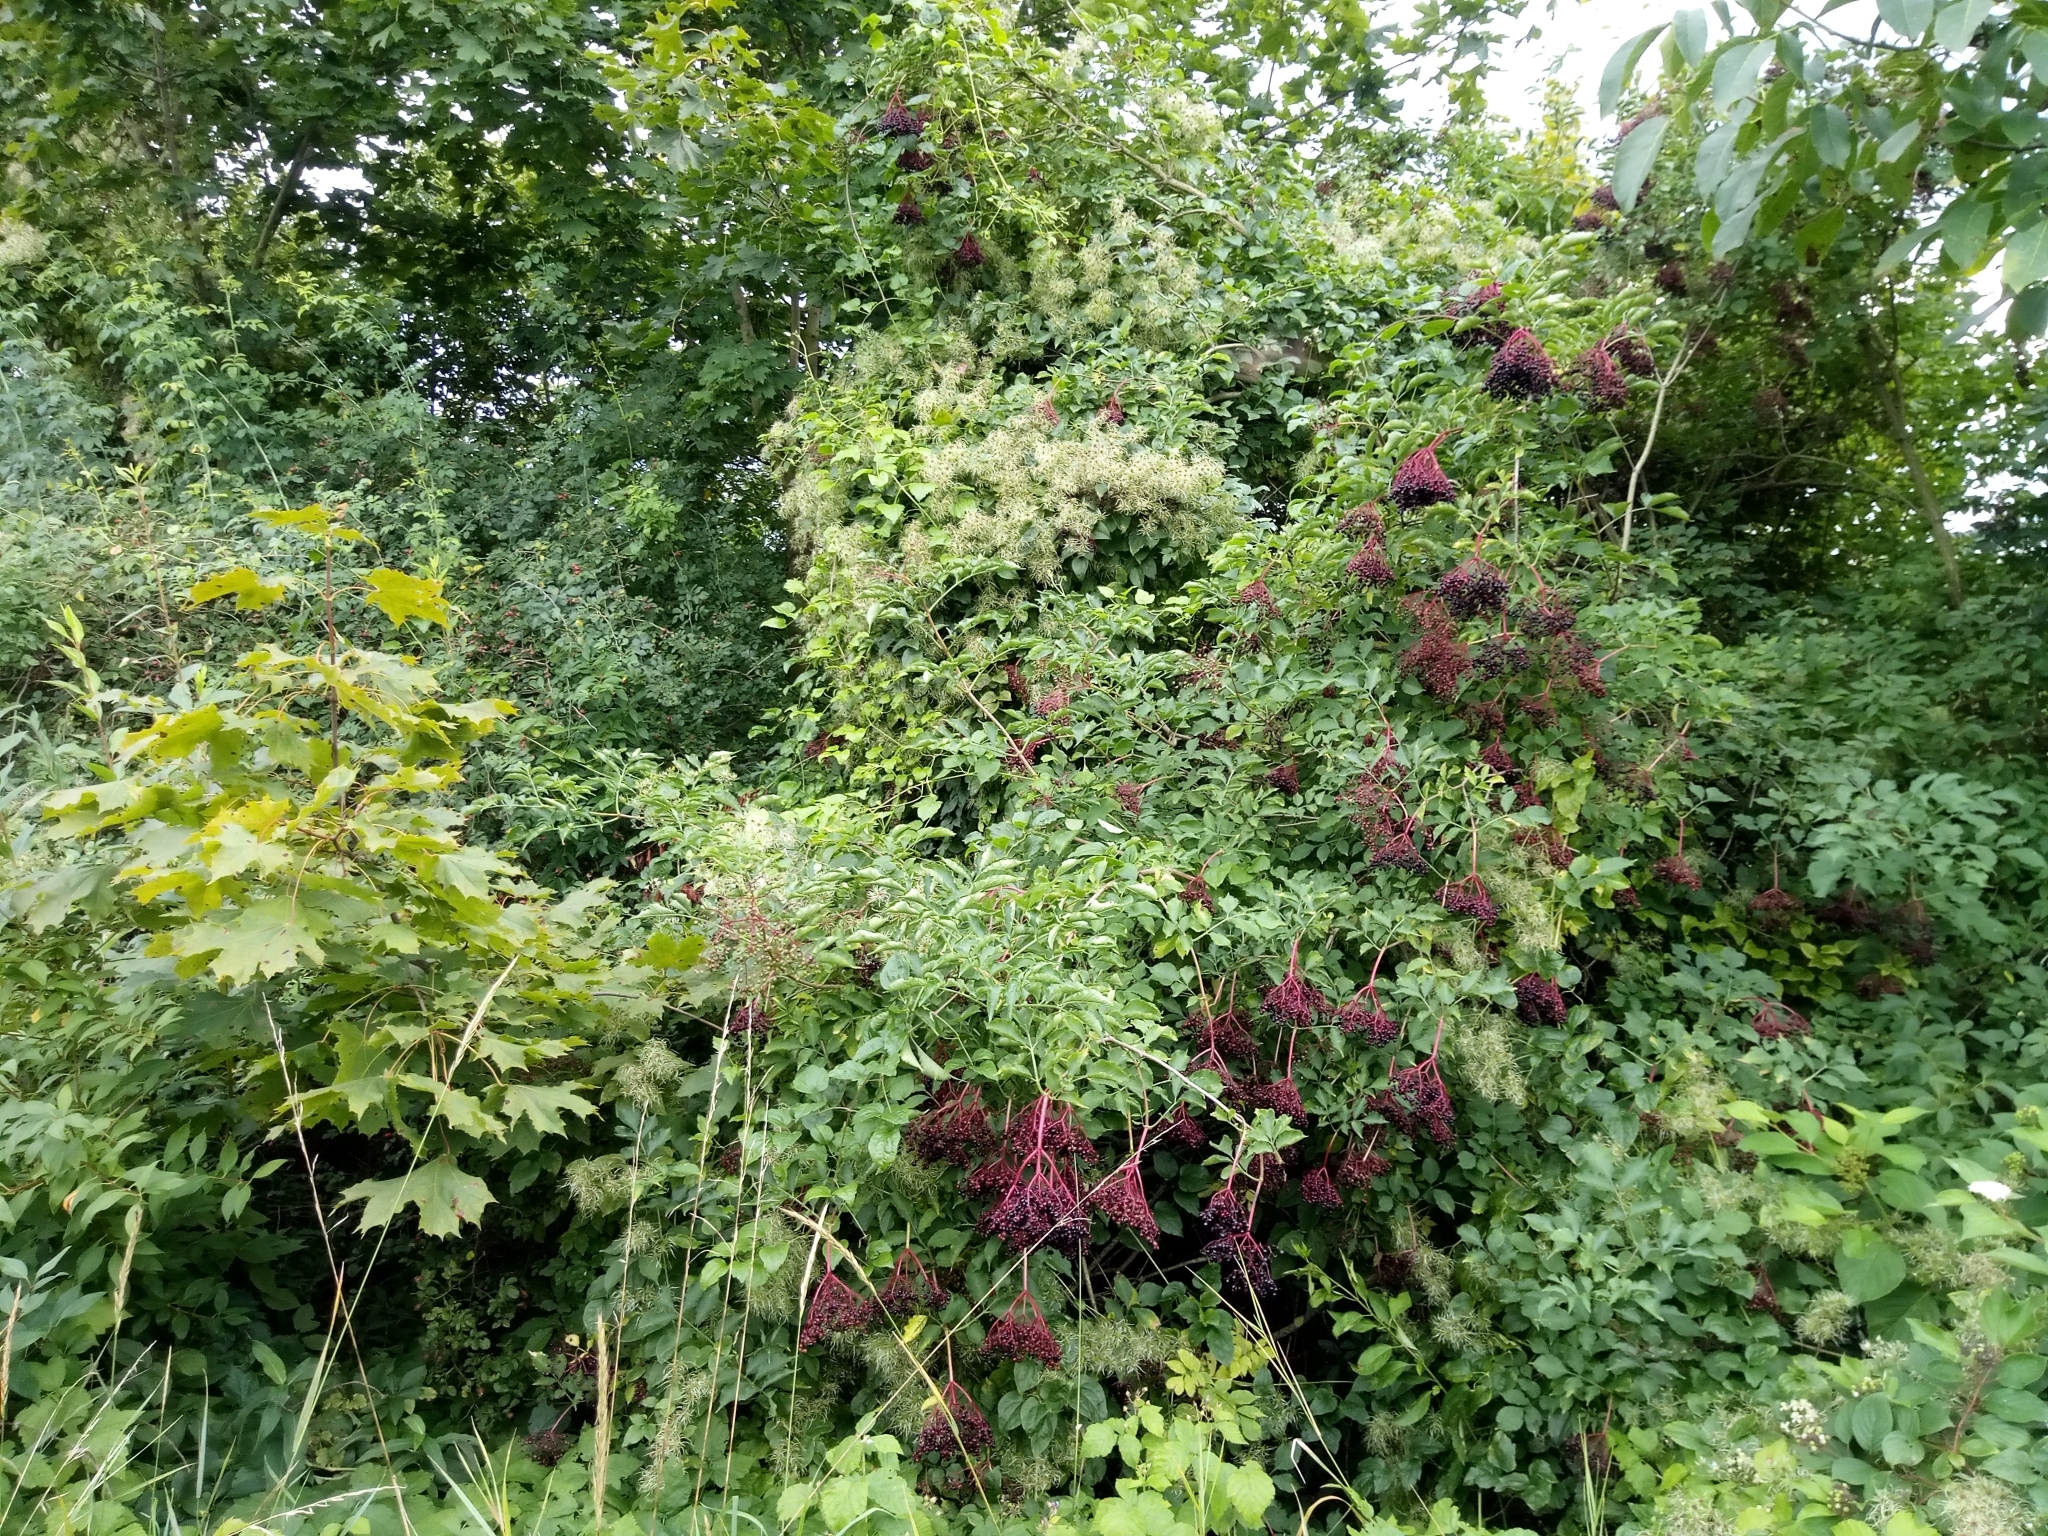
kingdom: Plantae
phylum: Tracheophyta
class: Magnoliopsida
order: Dipsacales
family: Viburnaceae
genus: Sambucus
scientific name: Sambucus nigra
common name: Elder
